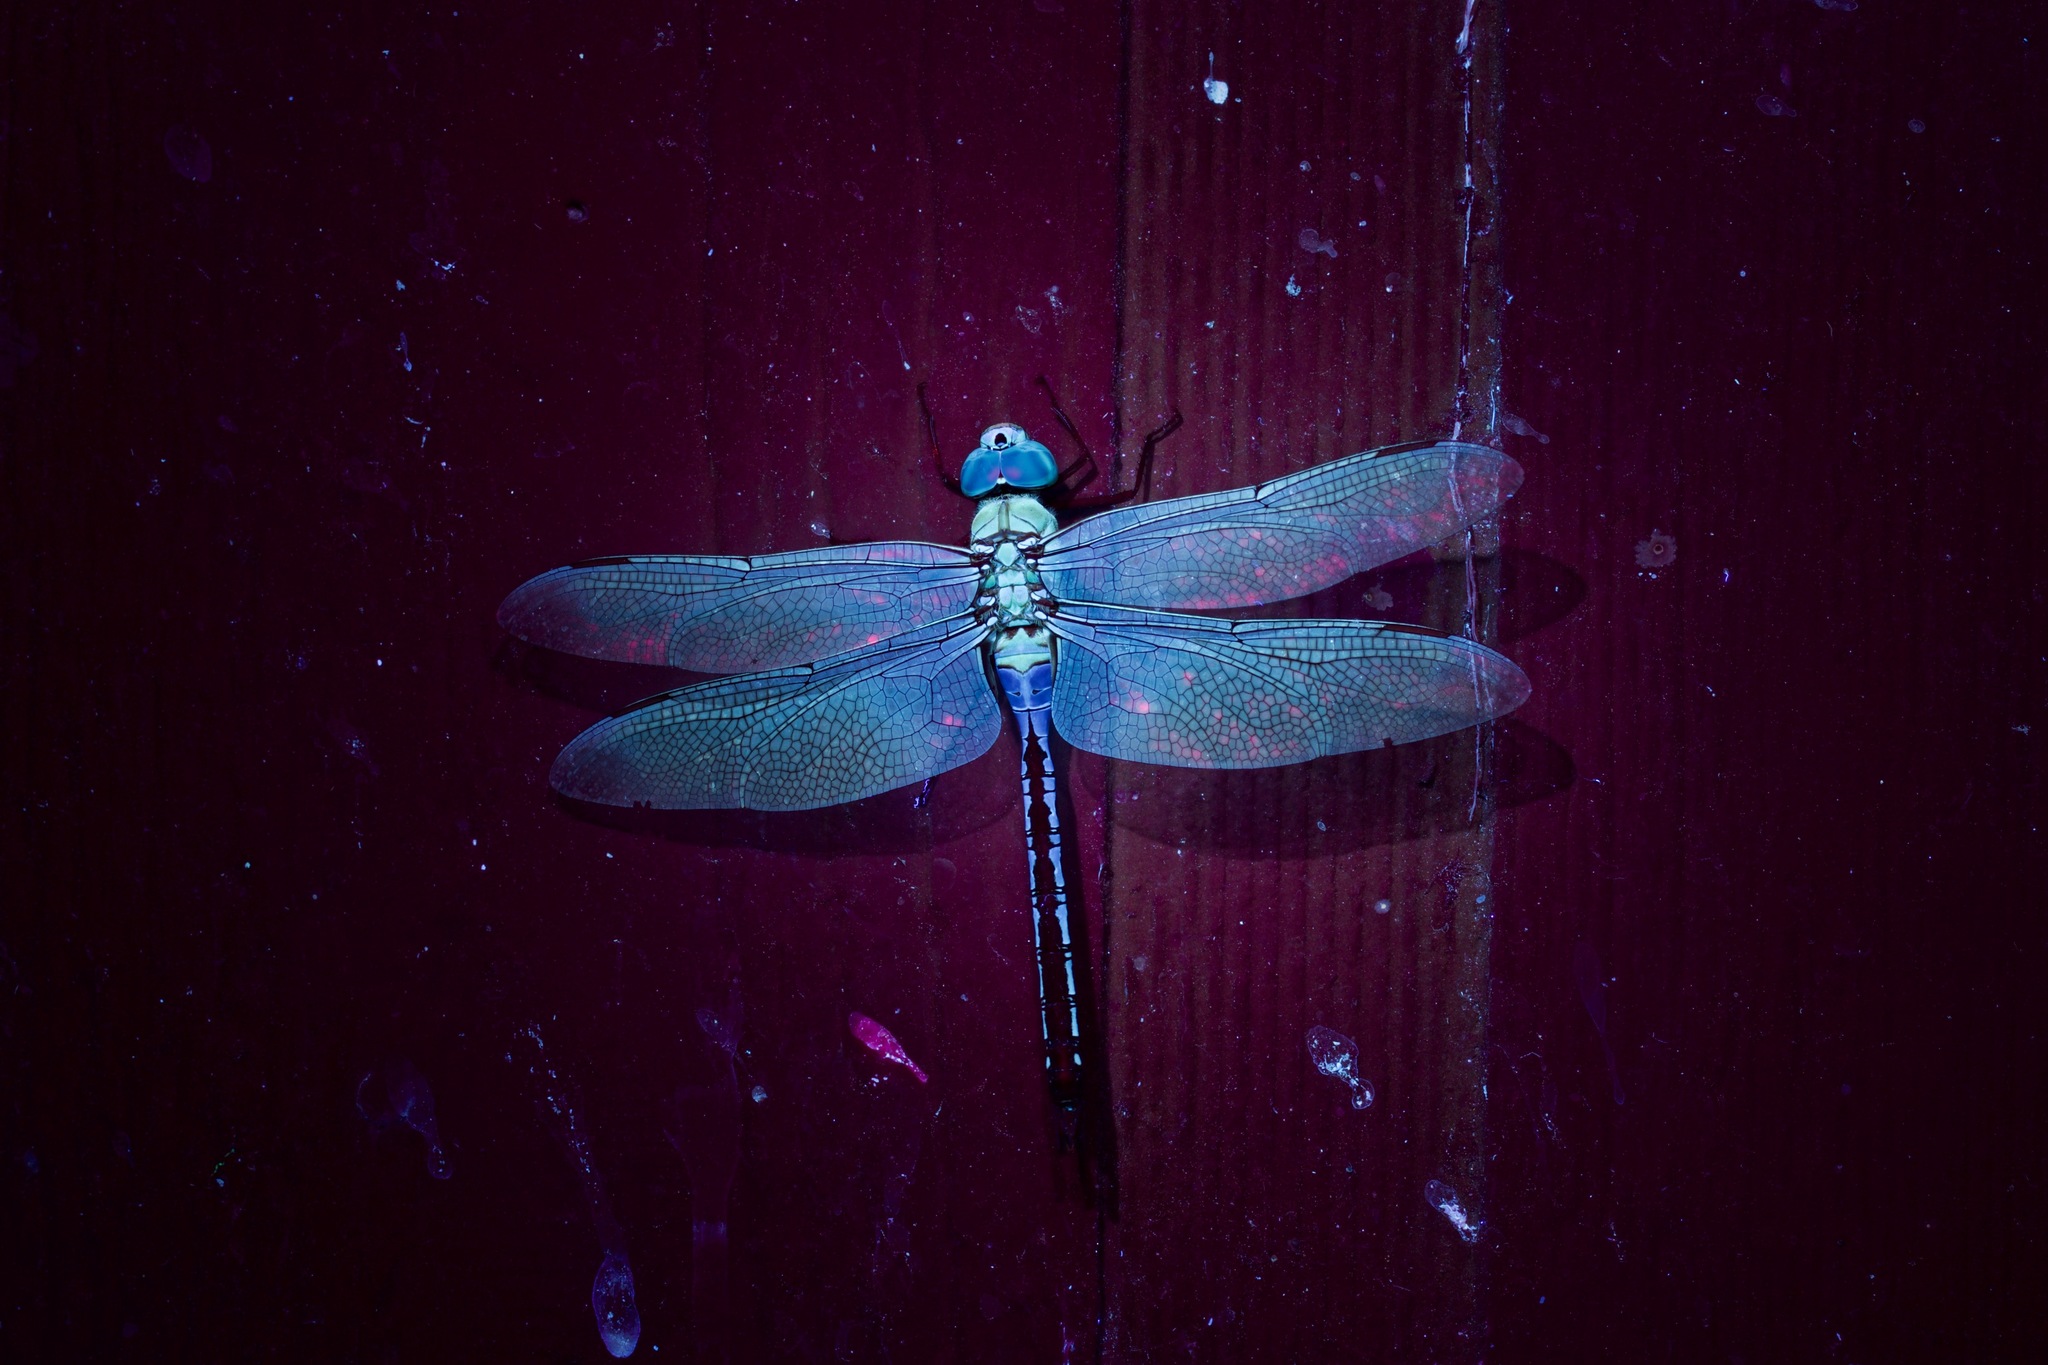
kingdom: Animalia
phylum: Arthropoda
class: Insecta
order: Odonata
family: Aeshnidae
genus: Anax
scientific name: Anax junius
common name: Common green darner
